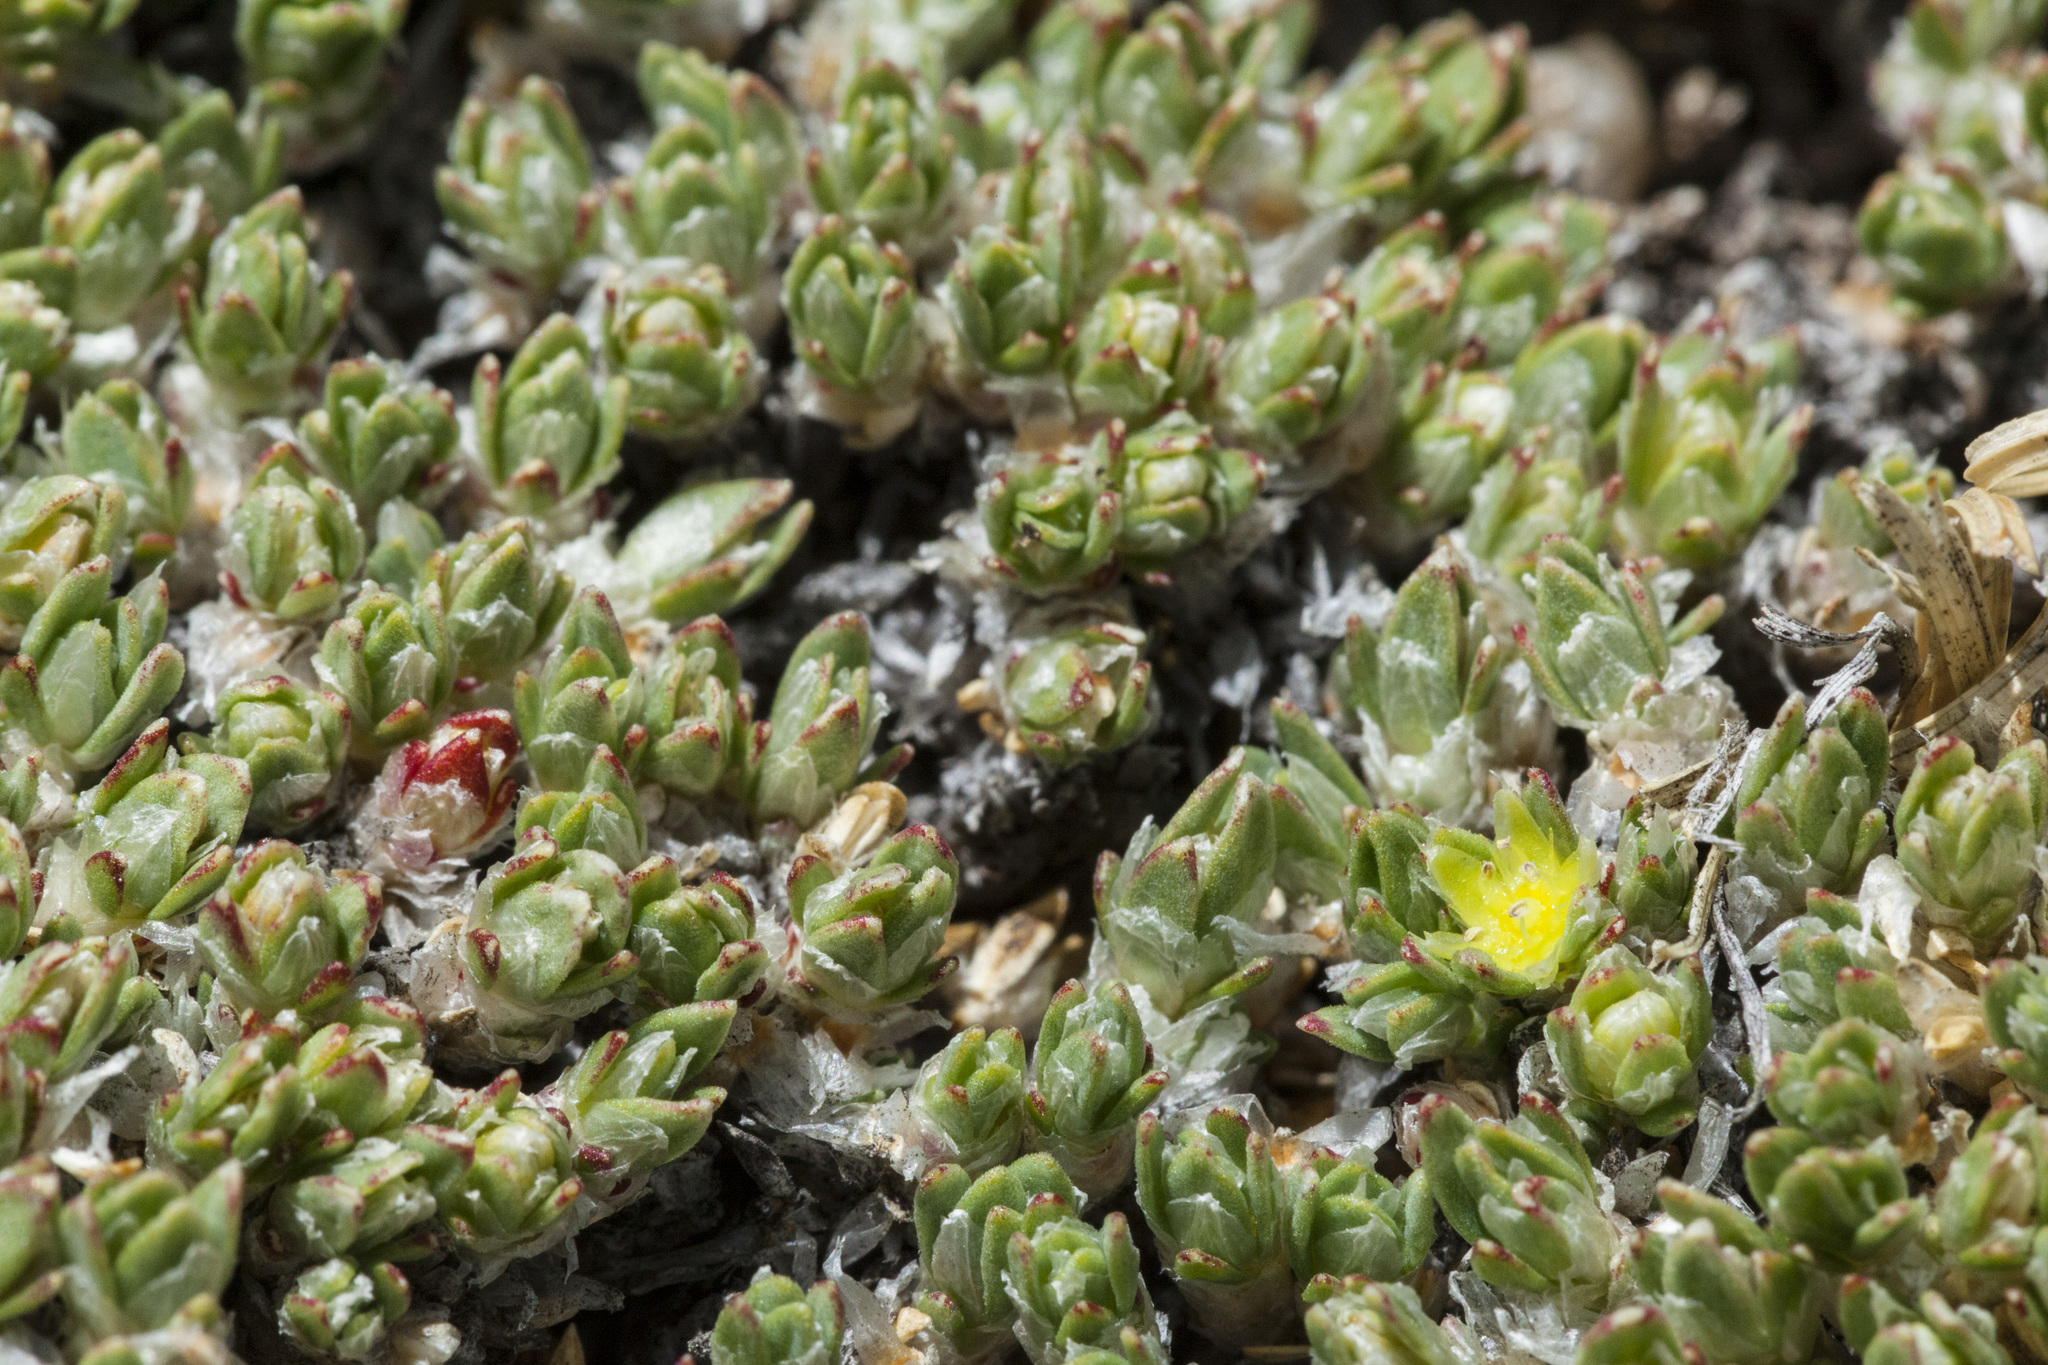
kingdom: Plantae
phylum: Tracheophyta
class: Magnoliopsida
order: Caryophyllales
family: Caryophyllaceae
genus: Paronychia
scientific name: Paronychia pulvinata
